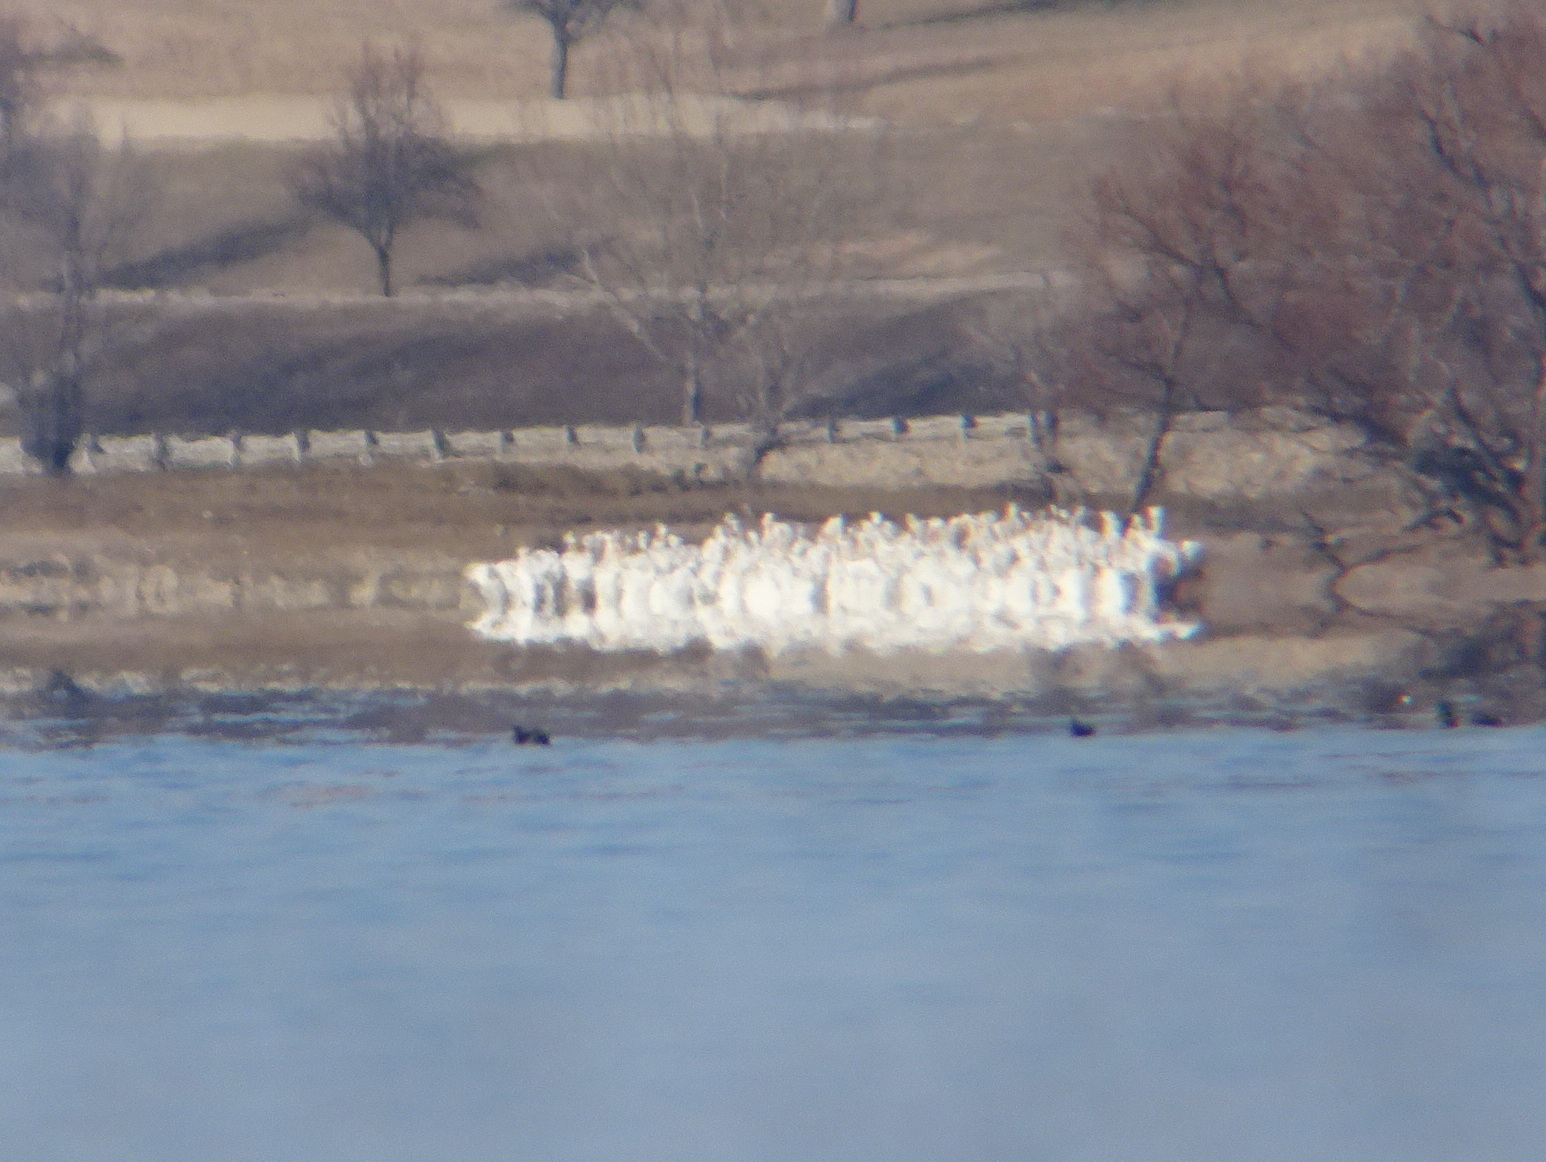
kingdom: Animalia
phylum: Chordata
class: Aves
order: Pelecaniformes
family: Pelecanidae
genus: Pelecanus
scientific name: Pelecanus erythrorhynchos
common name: American white pelican
